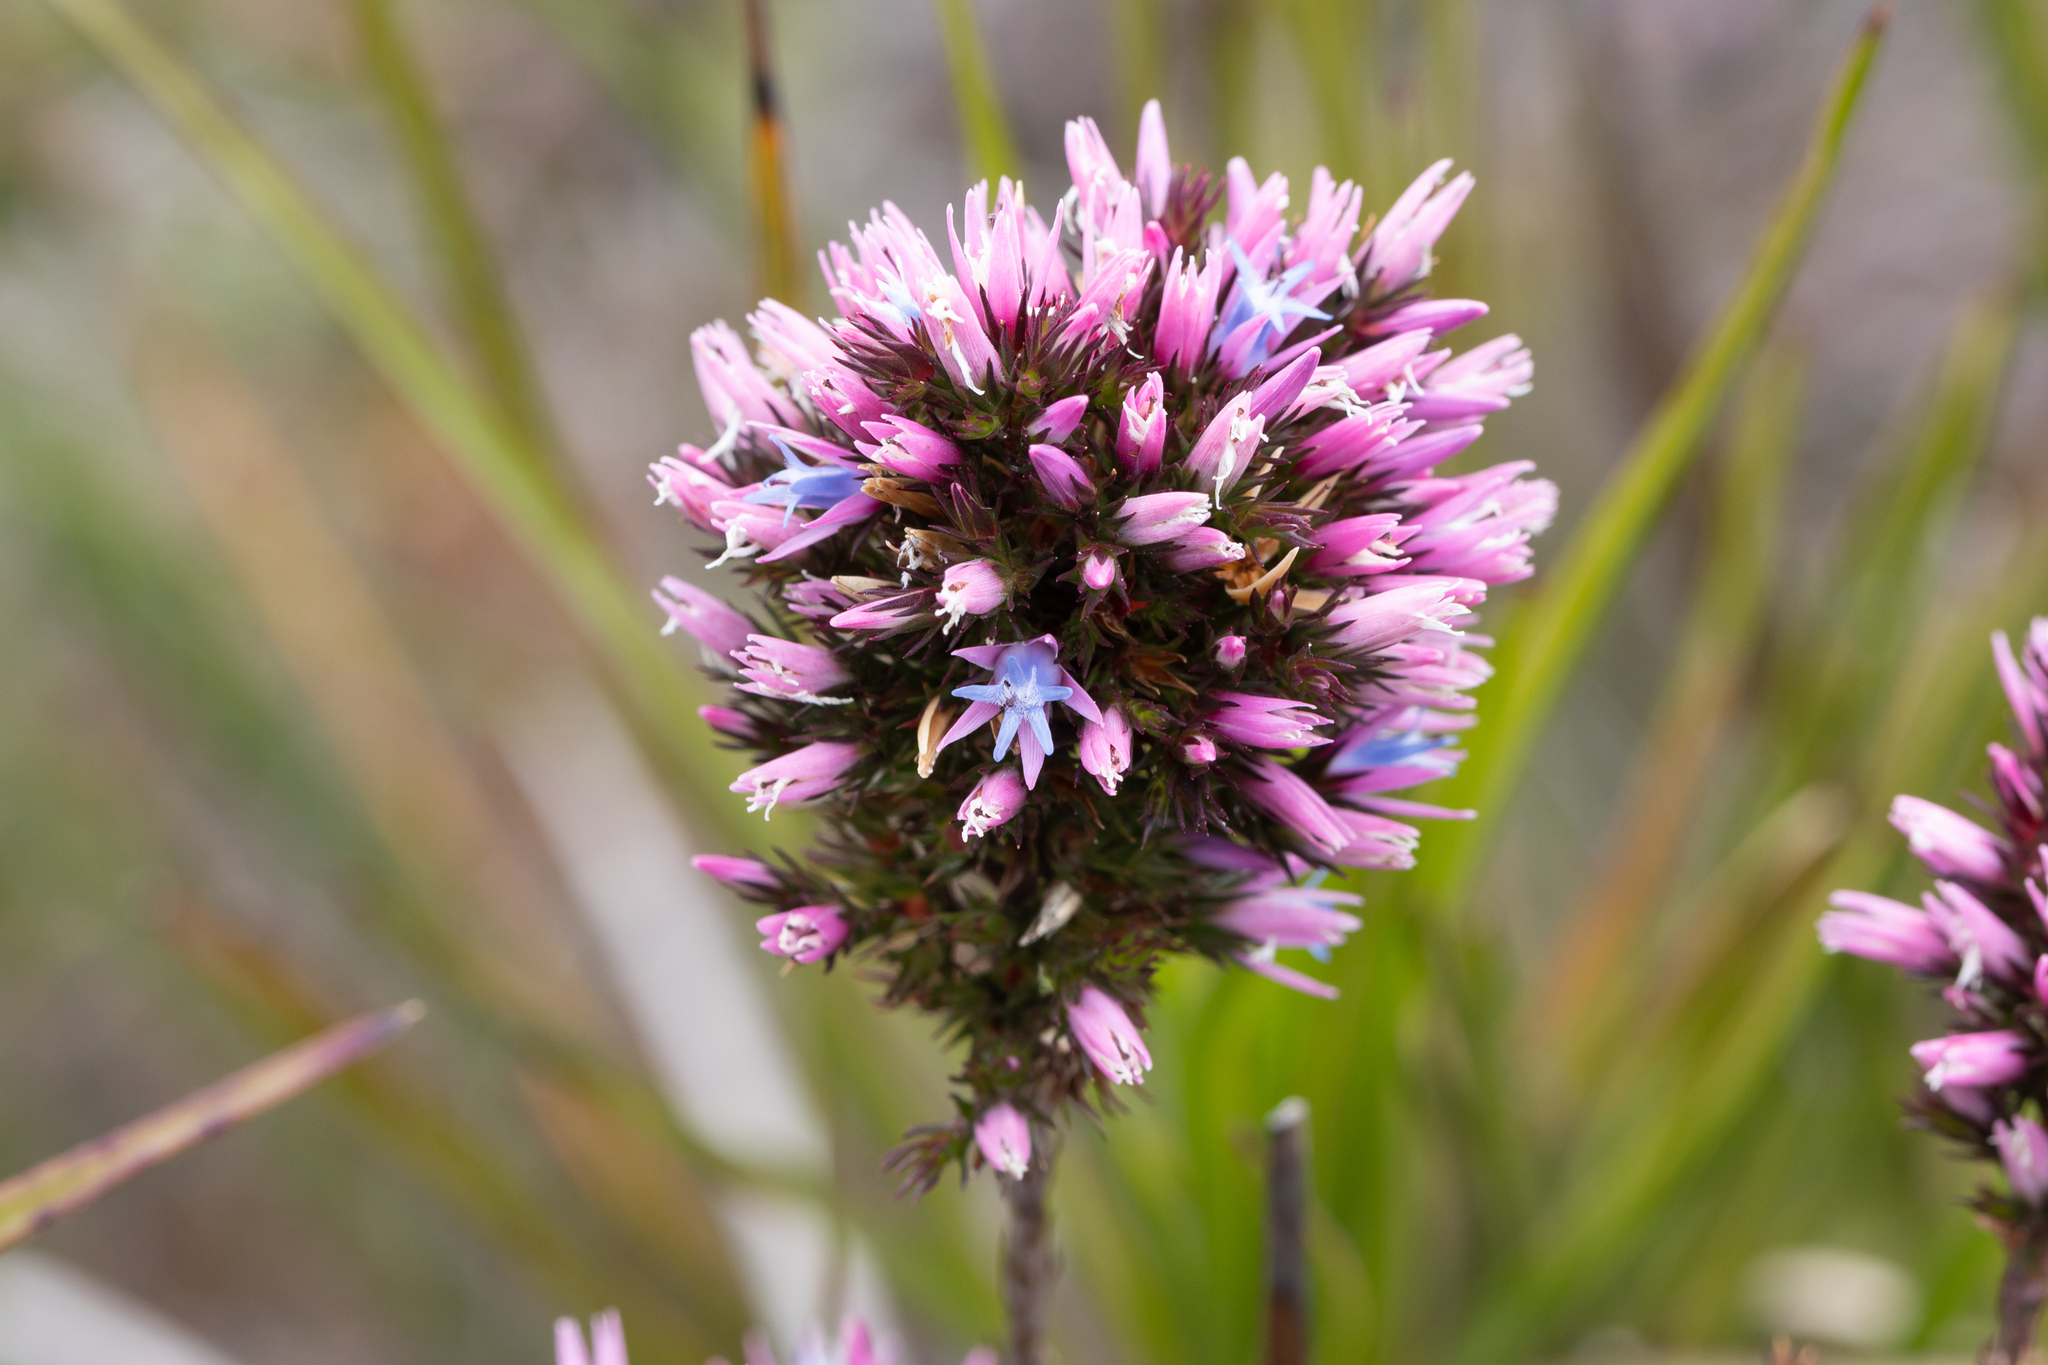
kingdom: Plantae
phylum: Tracheophyta
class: Magnoliopsida
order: Ericales
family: Ericaceae
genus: Andersonia
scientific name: Andersonia caerulea
